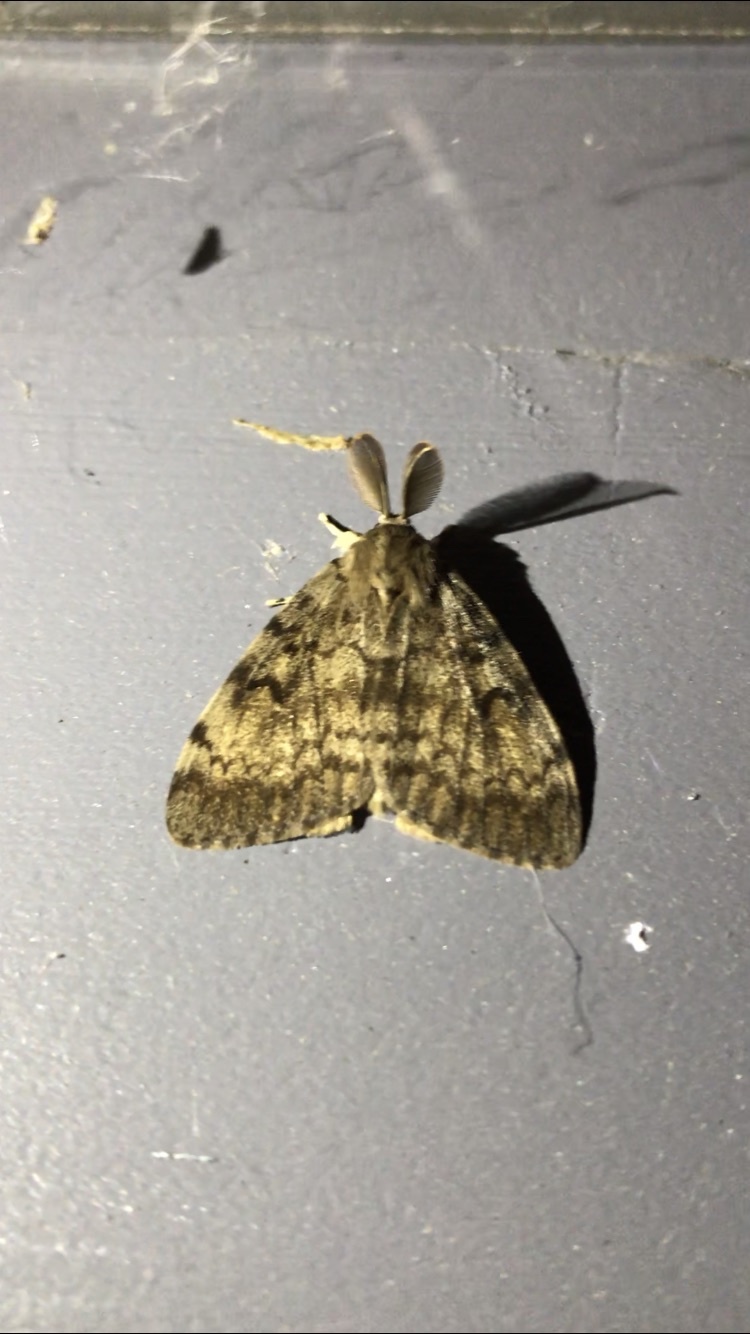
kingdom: Animalia
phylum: Arthropoda
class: Insecta
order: Lepidoptera
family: Erebidae
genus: Lymantria
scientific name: Lymantria dispar
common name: Gypsy moth
